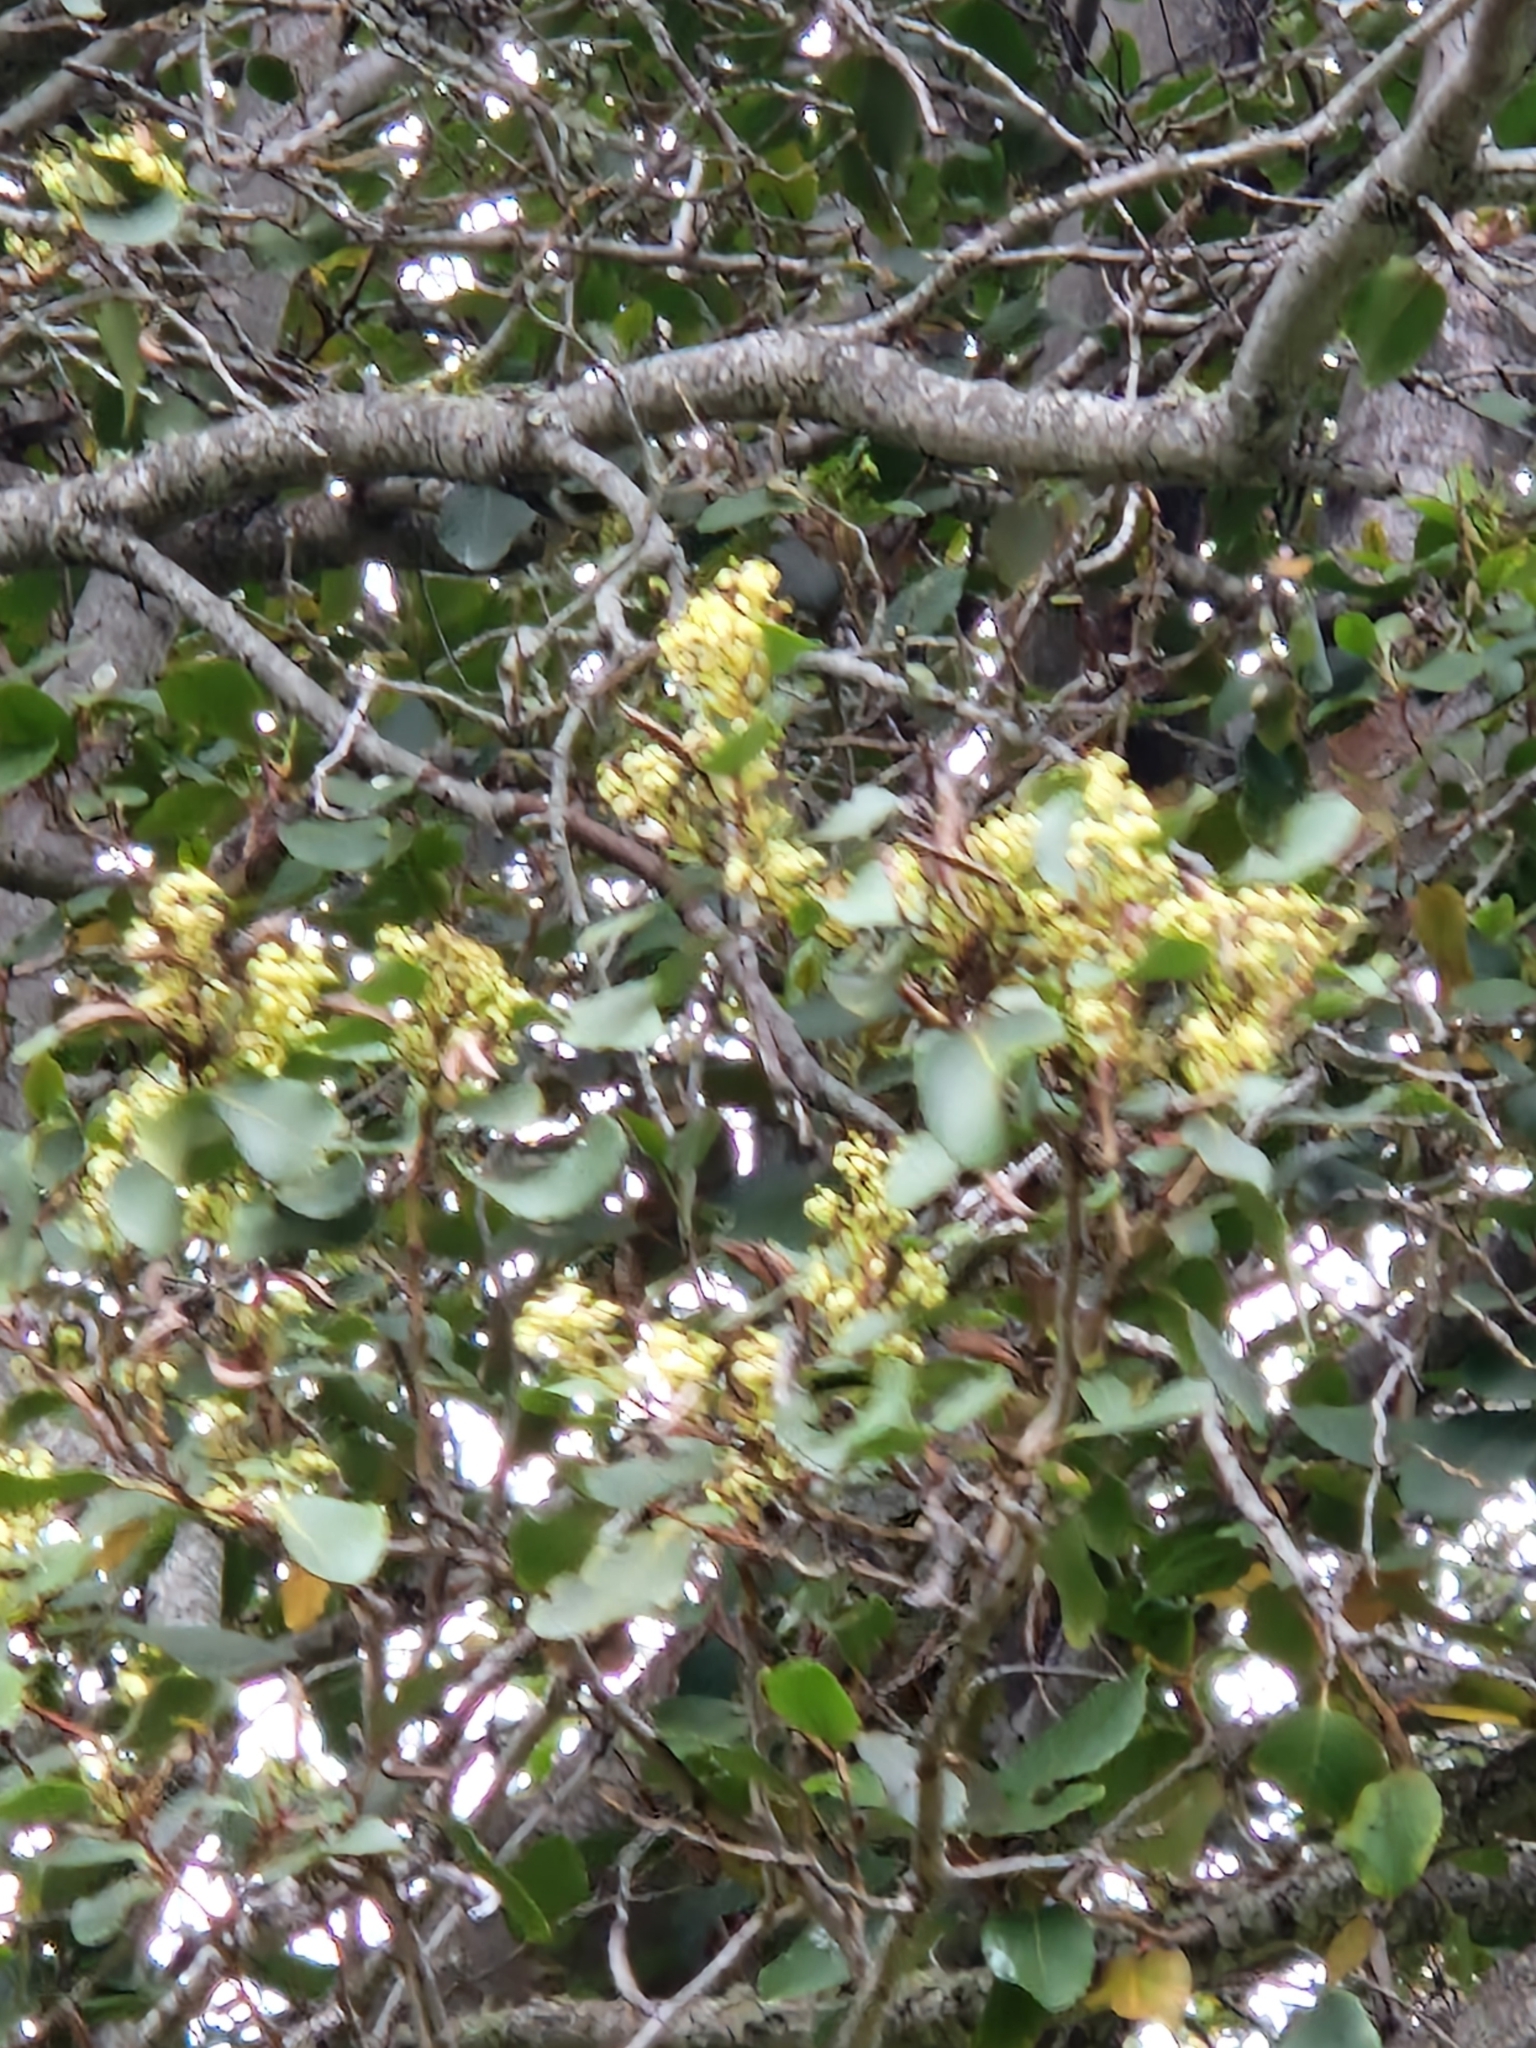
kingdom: Plantae
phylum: Tracheophyta
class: Magnoliopsida
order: Proteales
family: Proteaceae
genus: Lomatia
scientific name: Lomatia hirsuta
